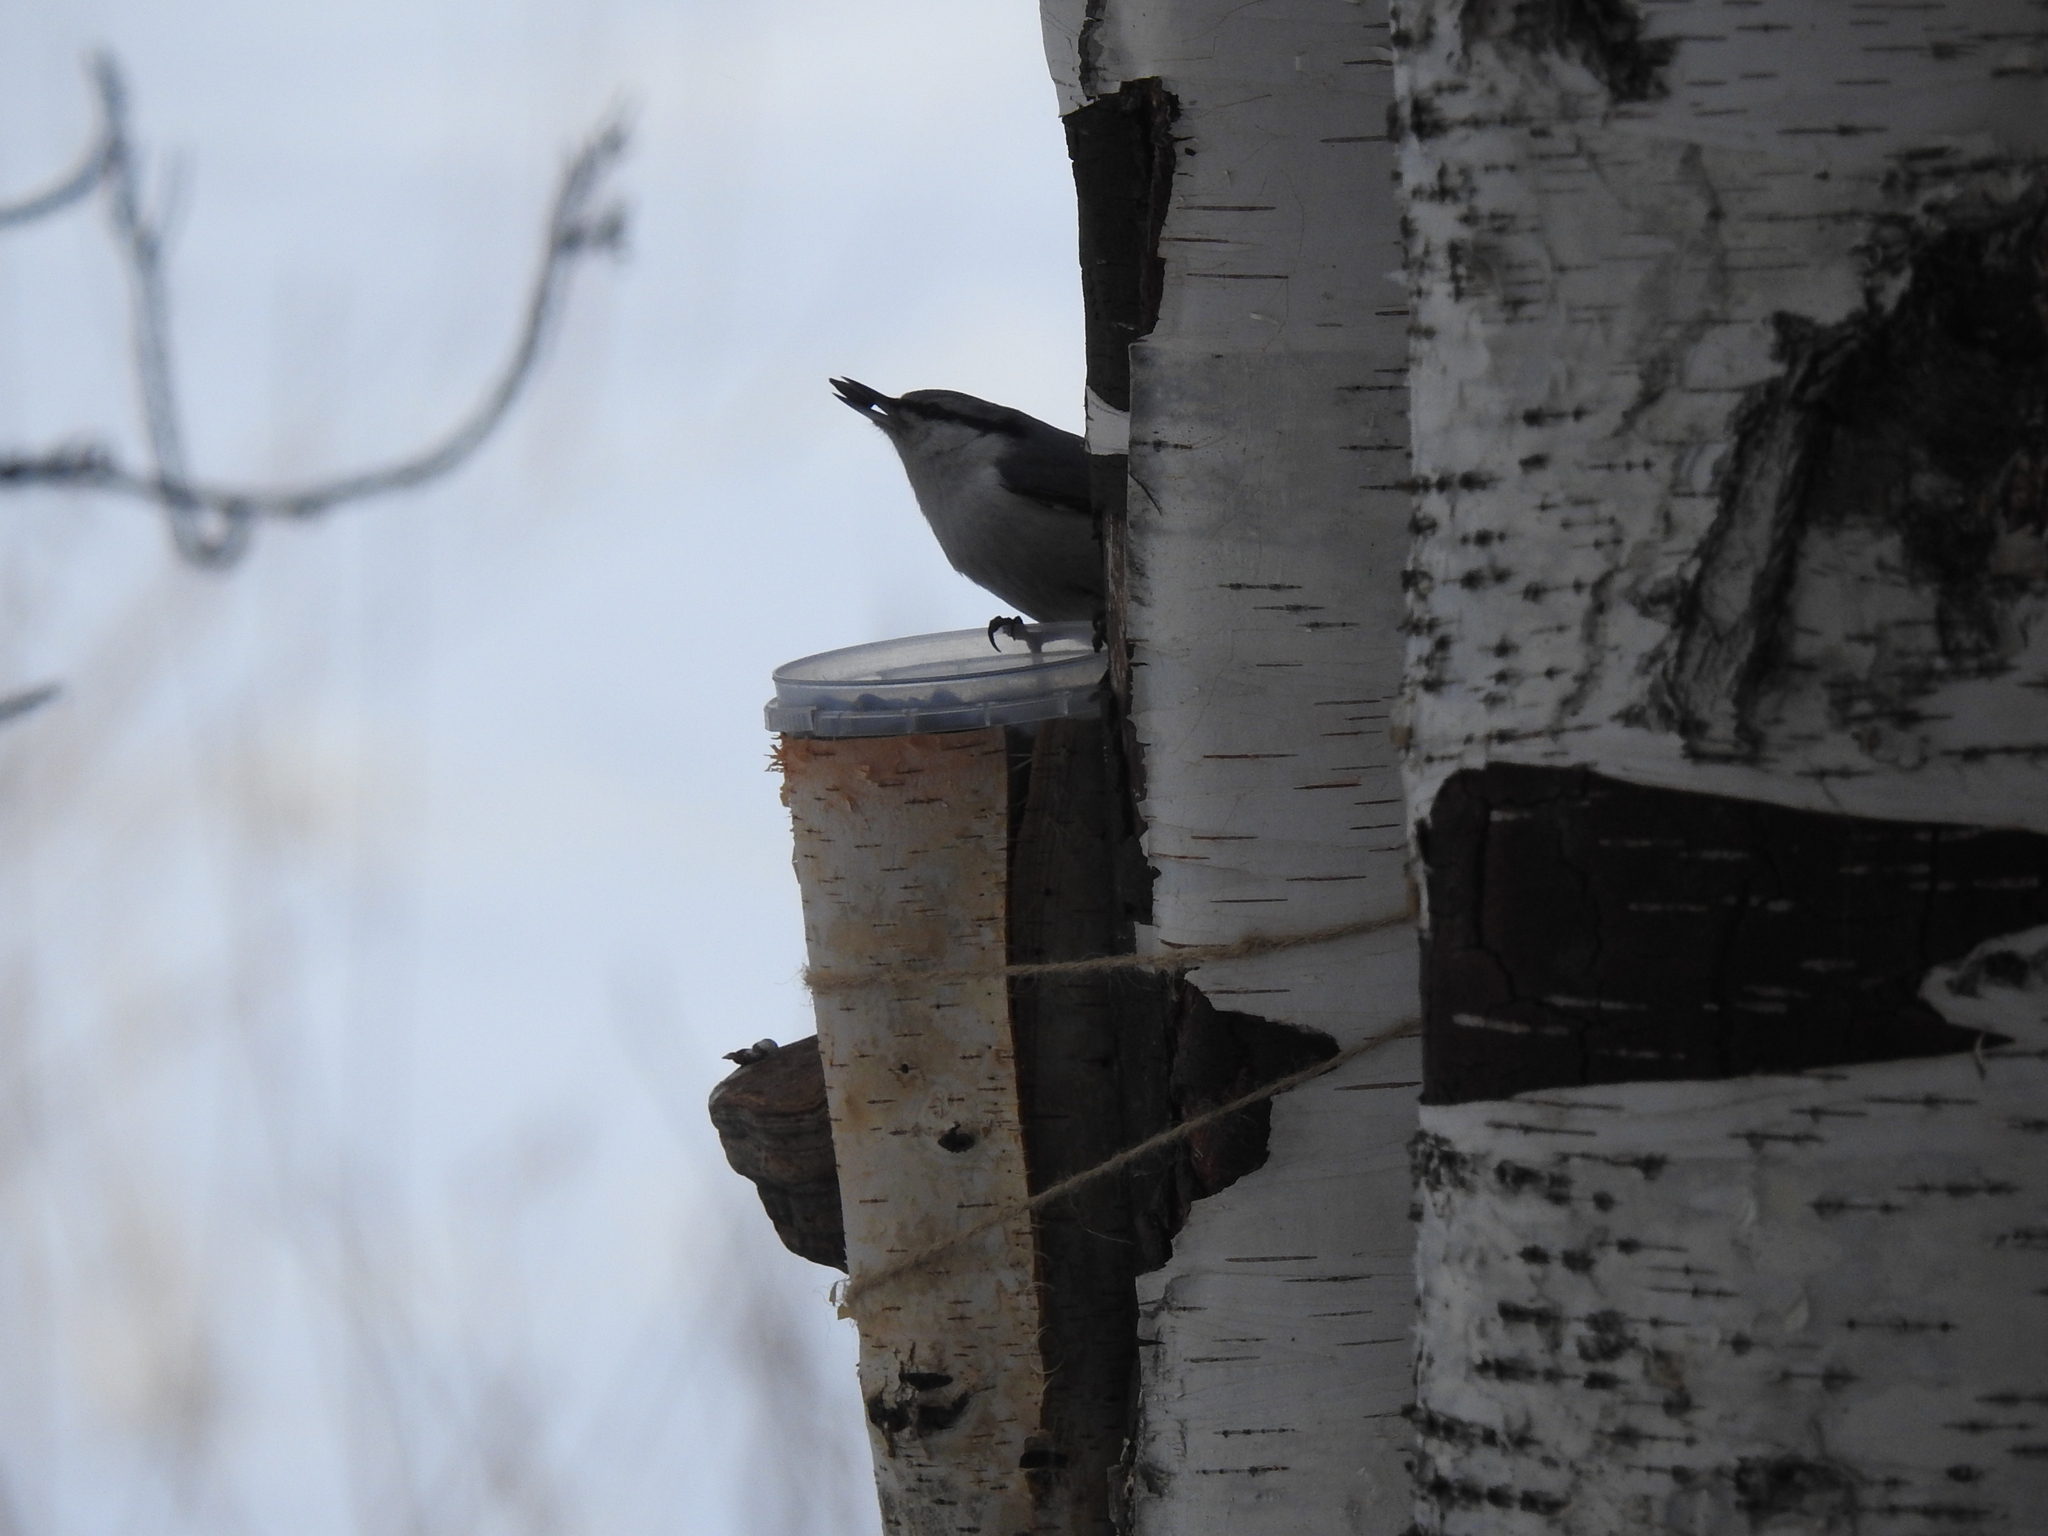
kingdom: Animalia
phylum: Chordata
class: Aves
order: Passeriformes
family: Sittidae
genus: Sitta
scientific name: Sitta europaea
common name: Eurasian nuthatch
